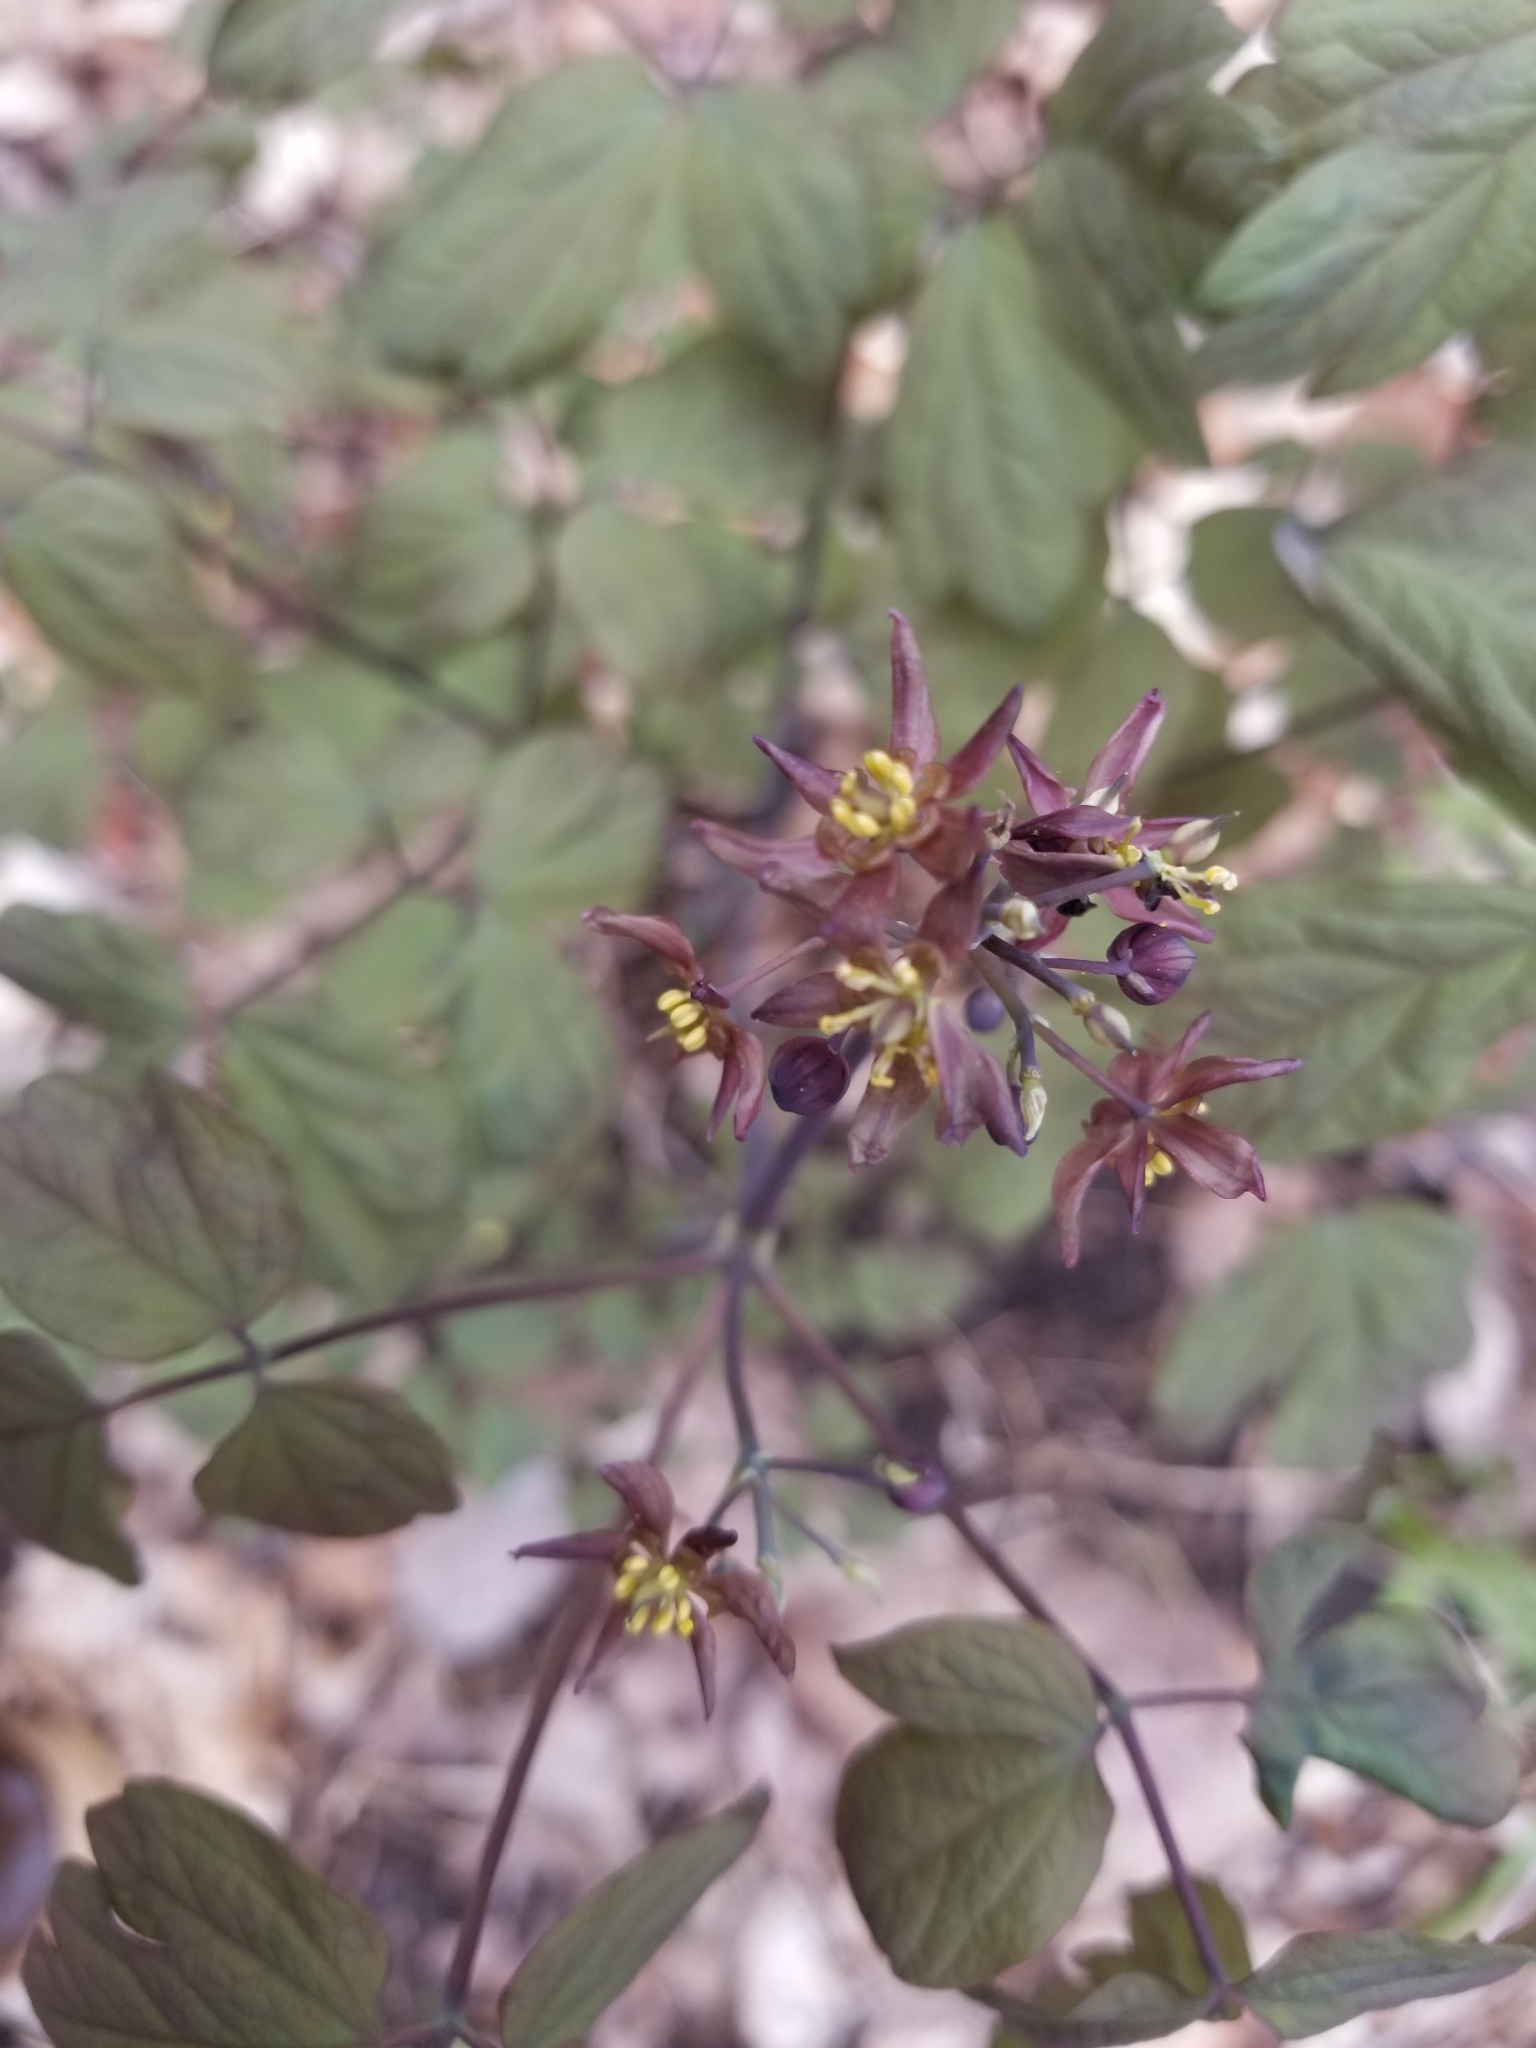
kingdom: Plantae
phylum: Tracheophyta
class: Magnoliopsida
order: Ranunculales
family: Berberidaceae
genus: Caulophyllum
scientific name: Caulophyllum giganteum
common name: Blue cohosh
